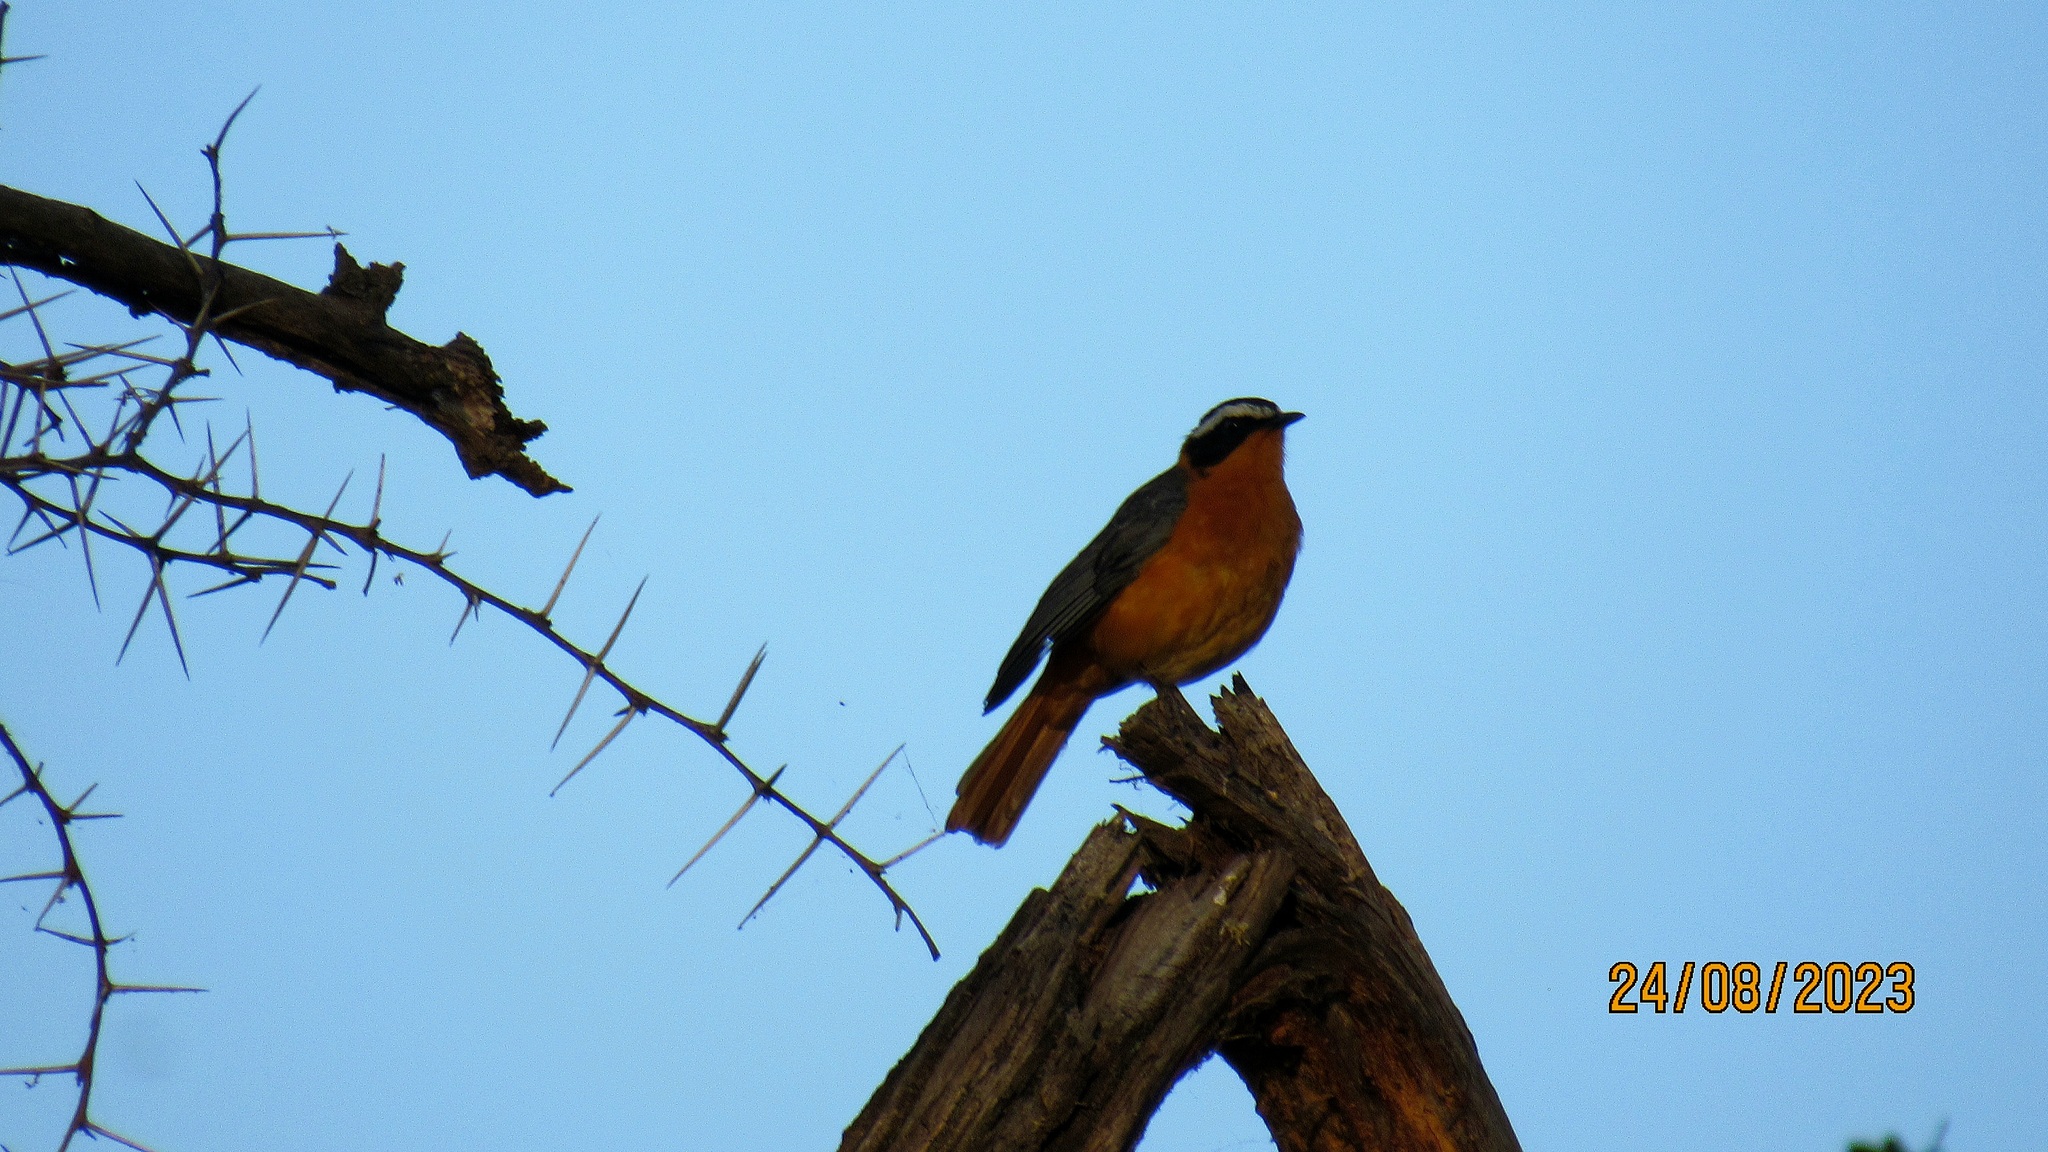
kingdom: Animalia
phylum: Chordata
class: Aves
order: Passeriformes
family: Muscicapidae
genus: Cossypha
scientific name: Cossypha heuglini
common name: White-browed robin-chat
